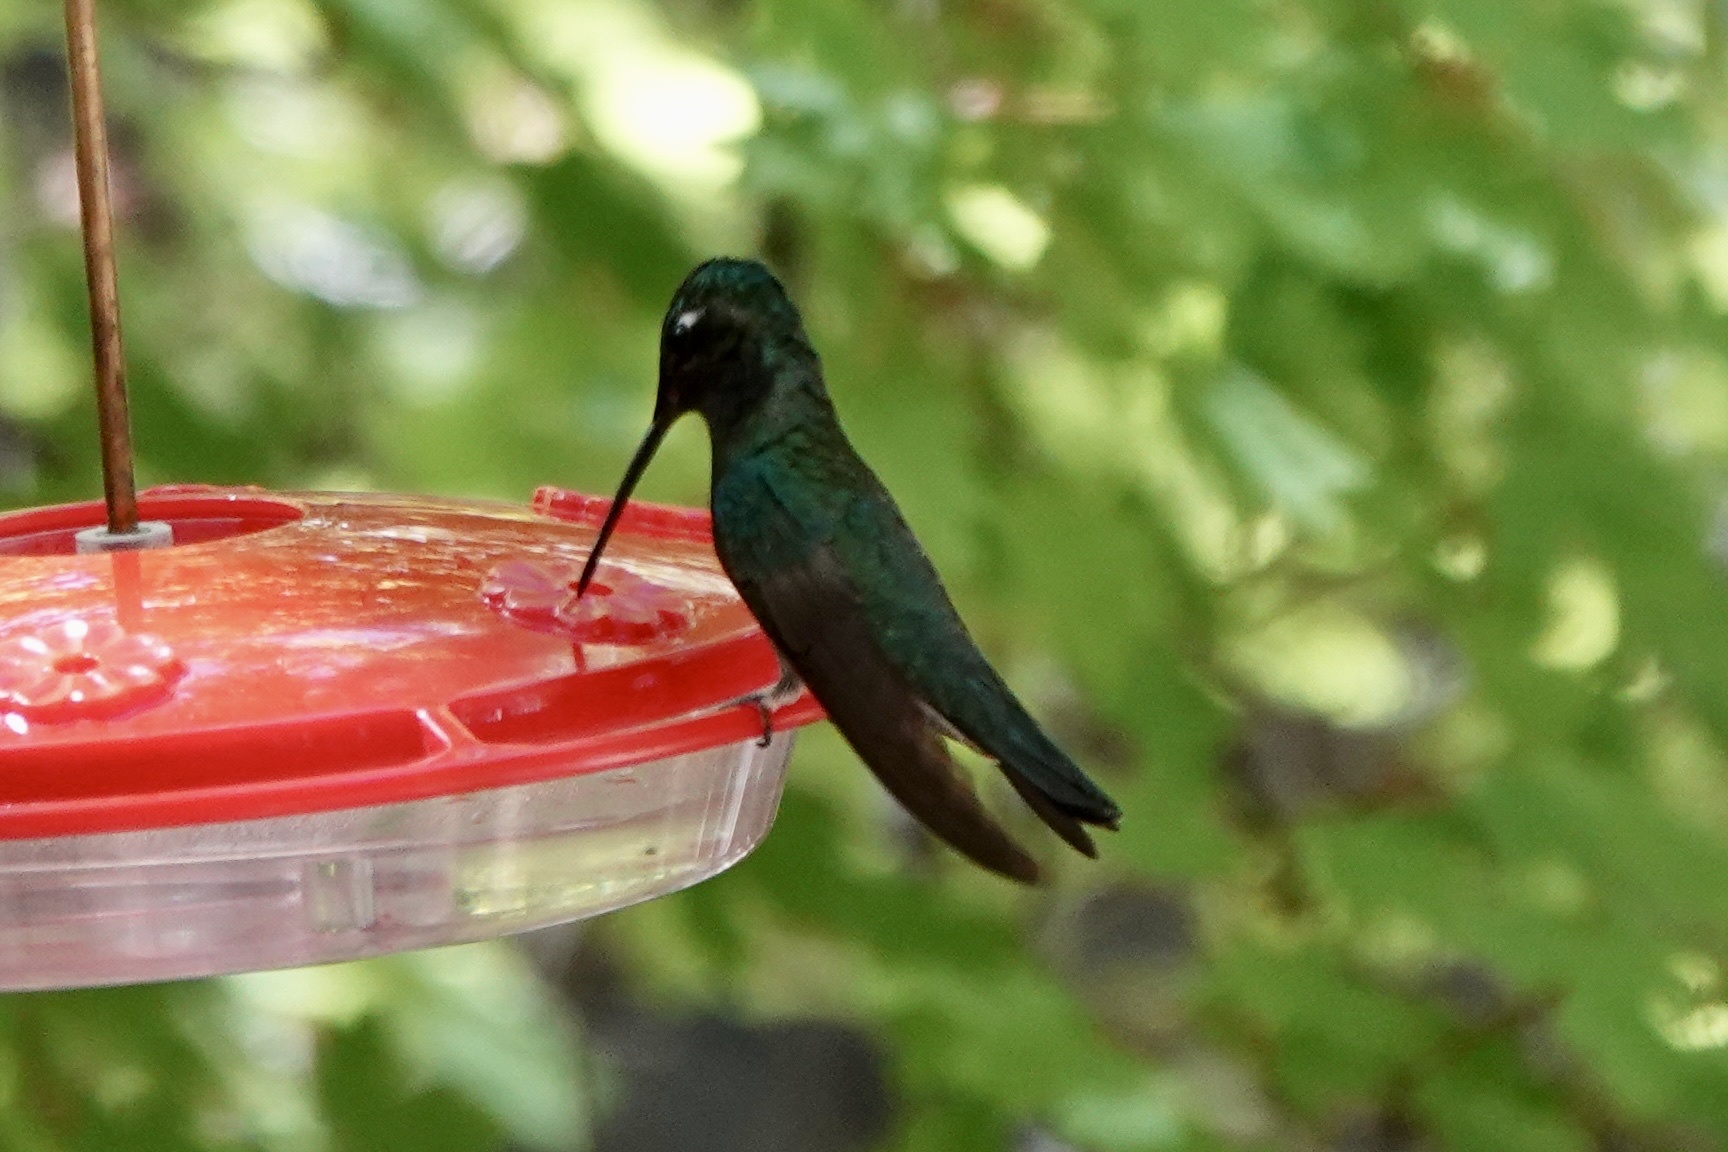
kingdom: Animalia
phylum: Chordata
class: Aves
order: Apodiformes
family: Trochilidae
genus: Eugenes
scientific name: Eugenes fulgens
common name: Magnificent hummingbird
